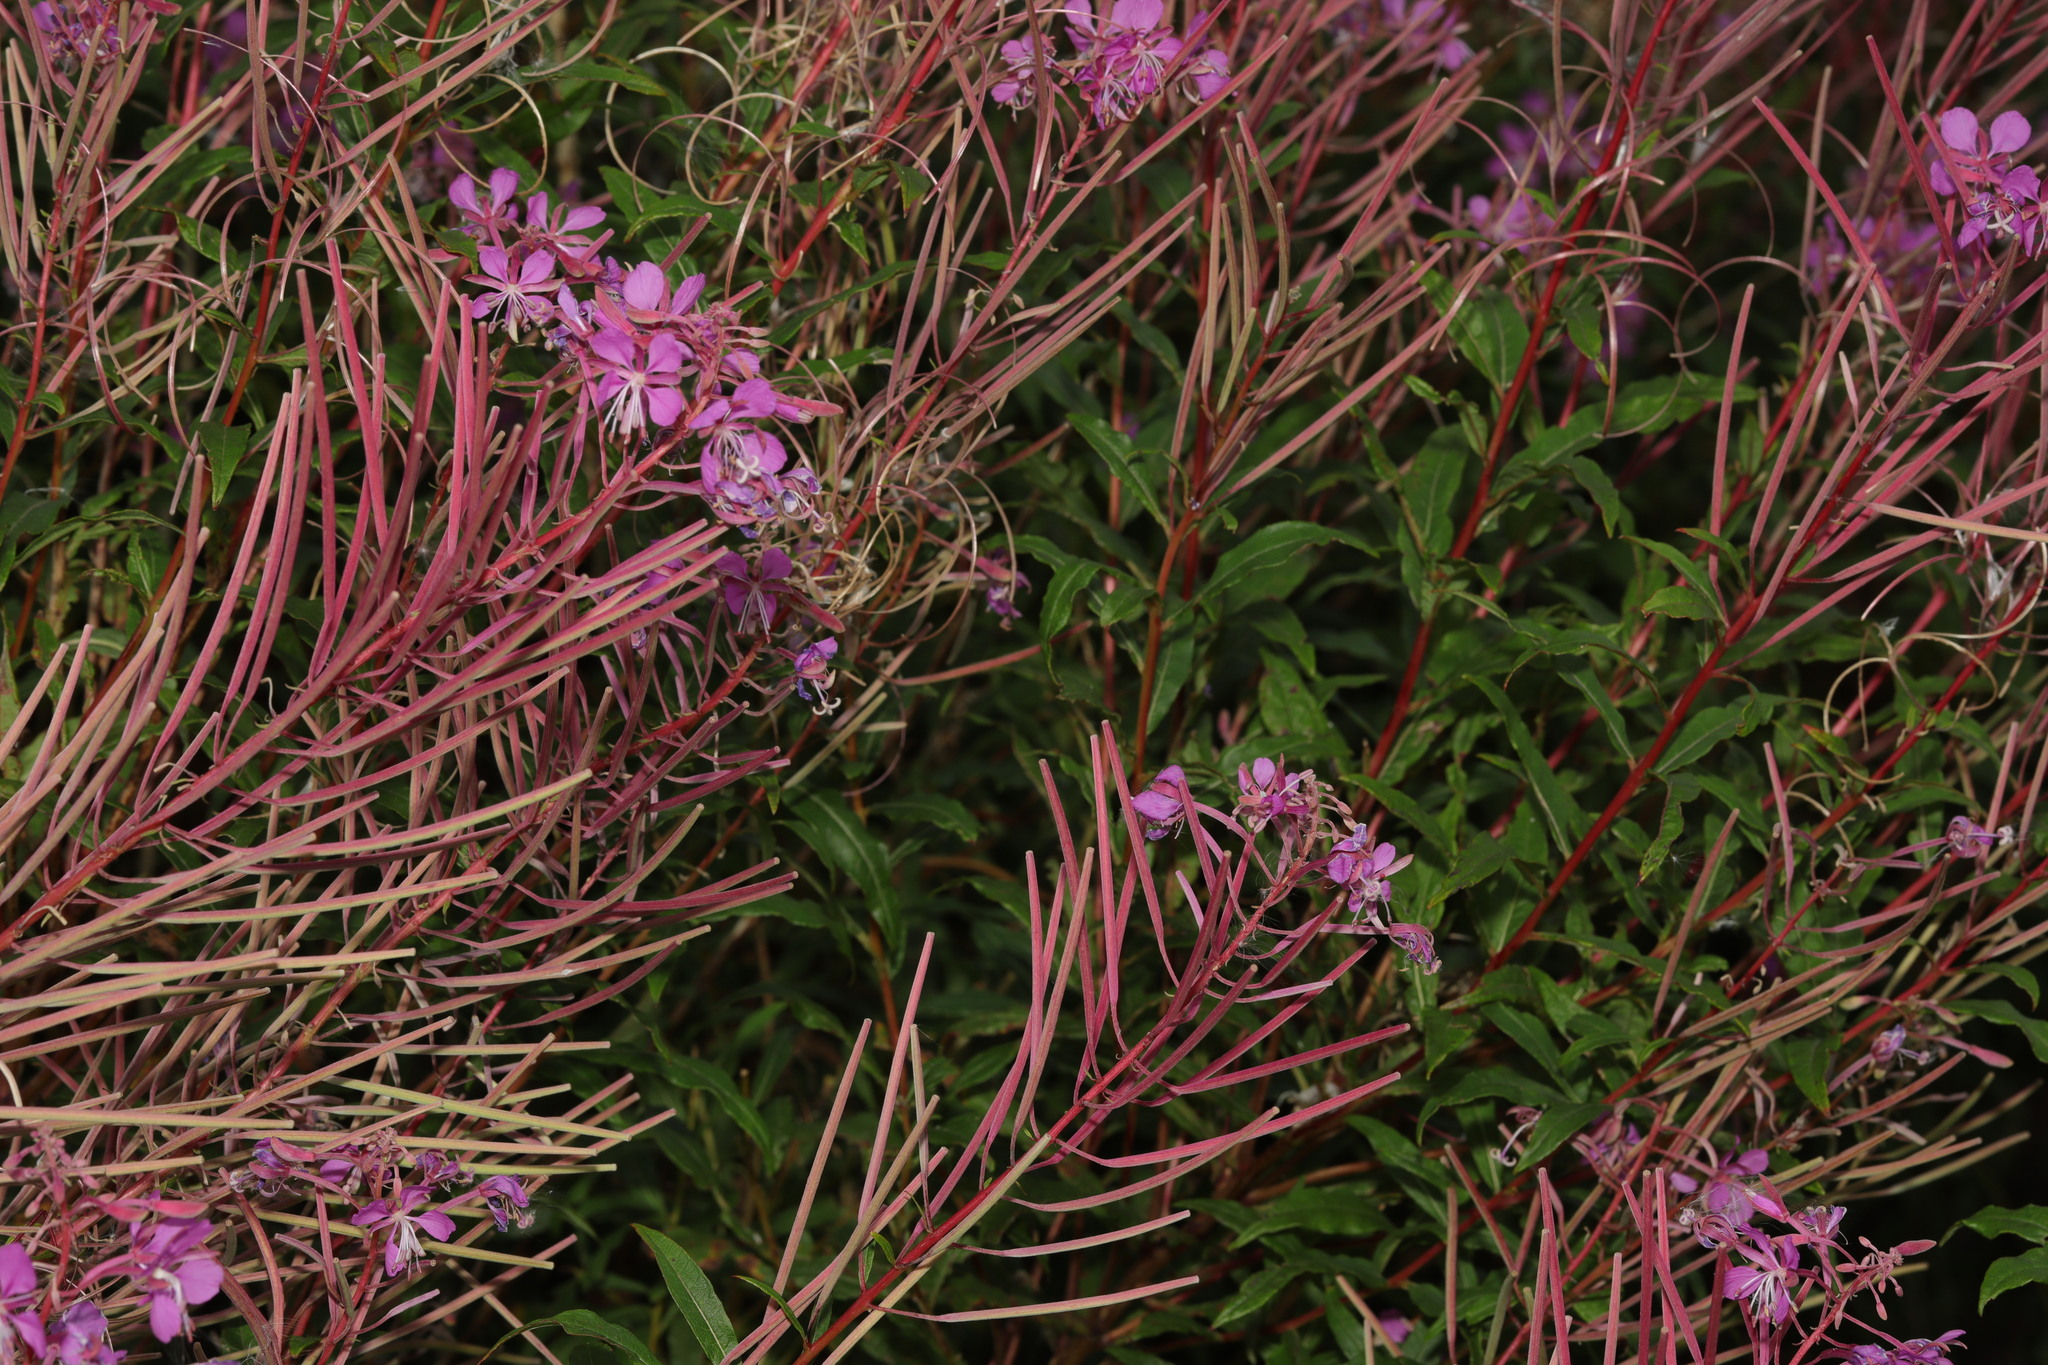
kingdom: Plantae
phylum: Tracheophyta
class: Magnoliopsida
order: Myrtales
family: Onagraceae
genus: Chamaenerion
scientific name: Chamaenerion angustifolium
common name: Fireweed
